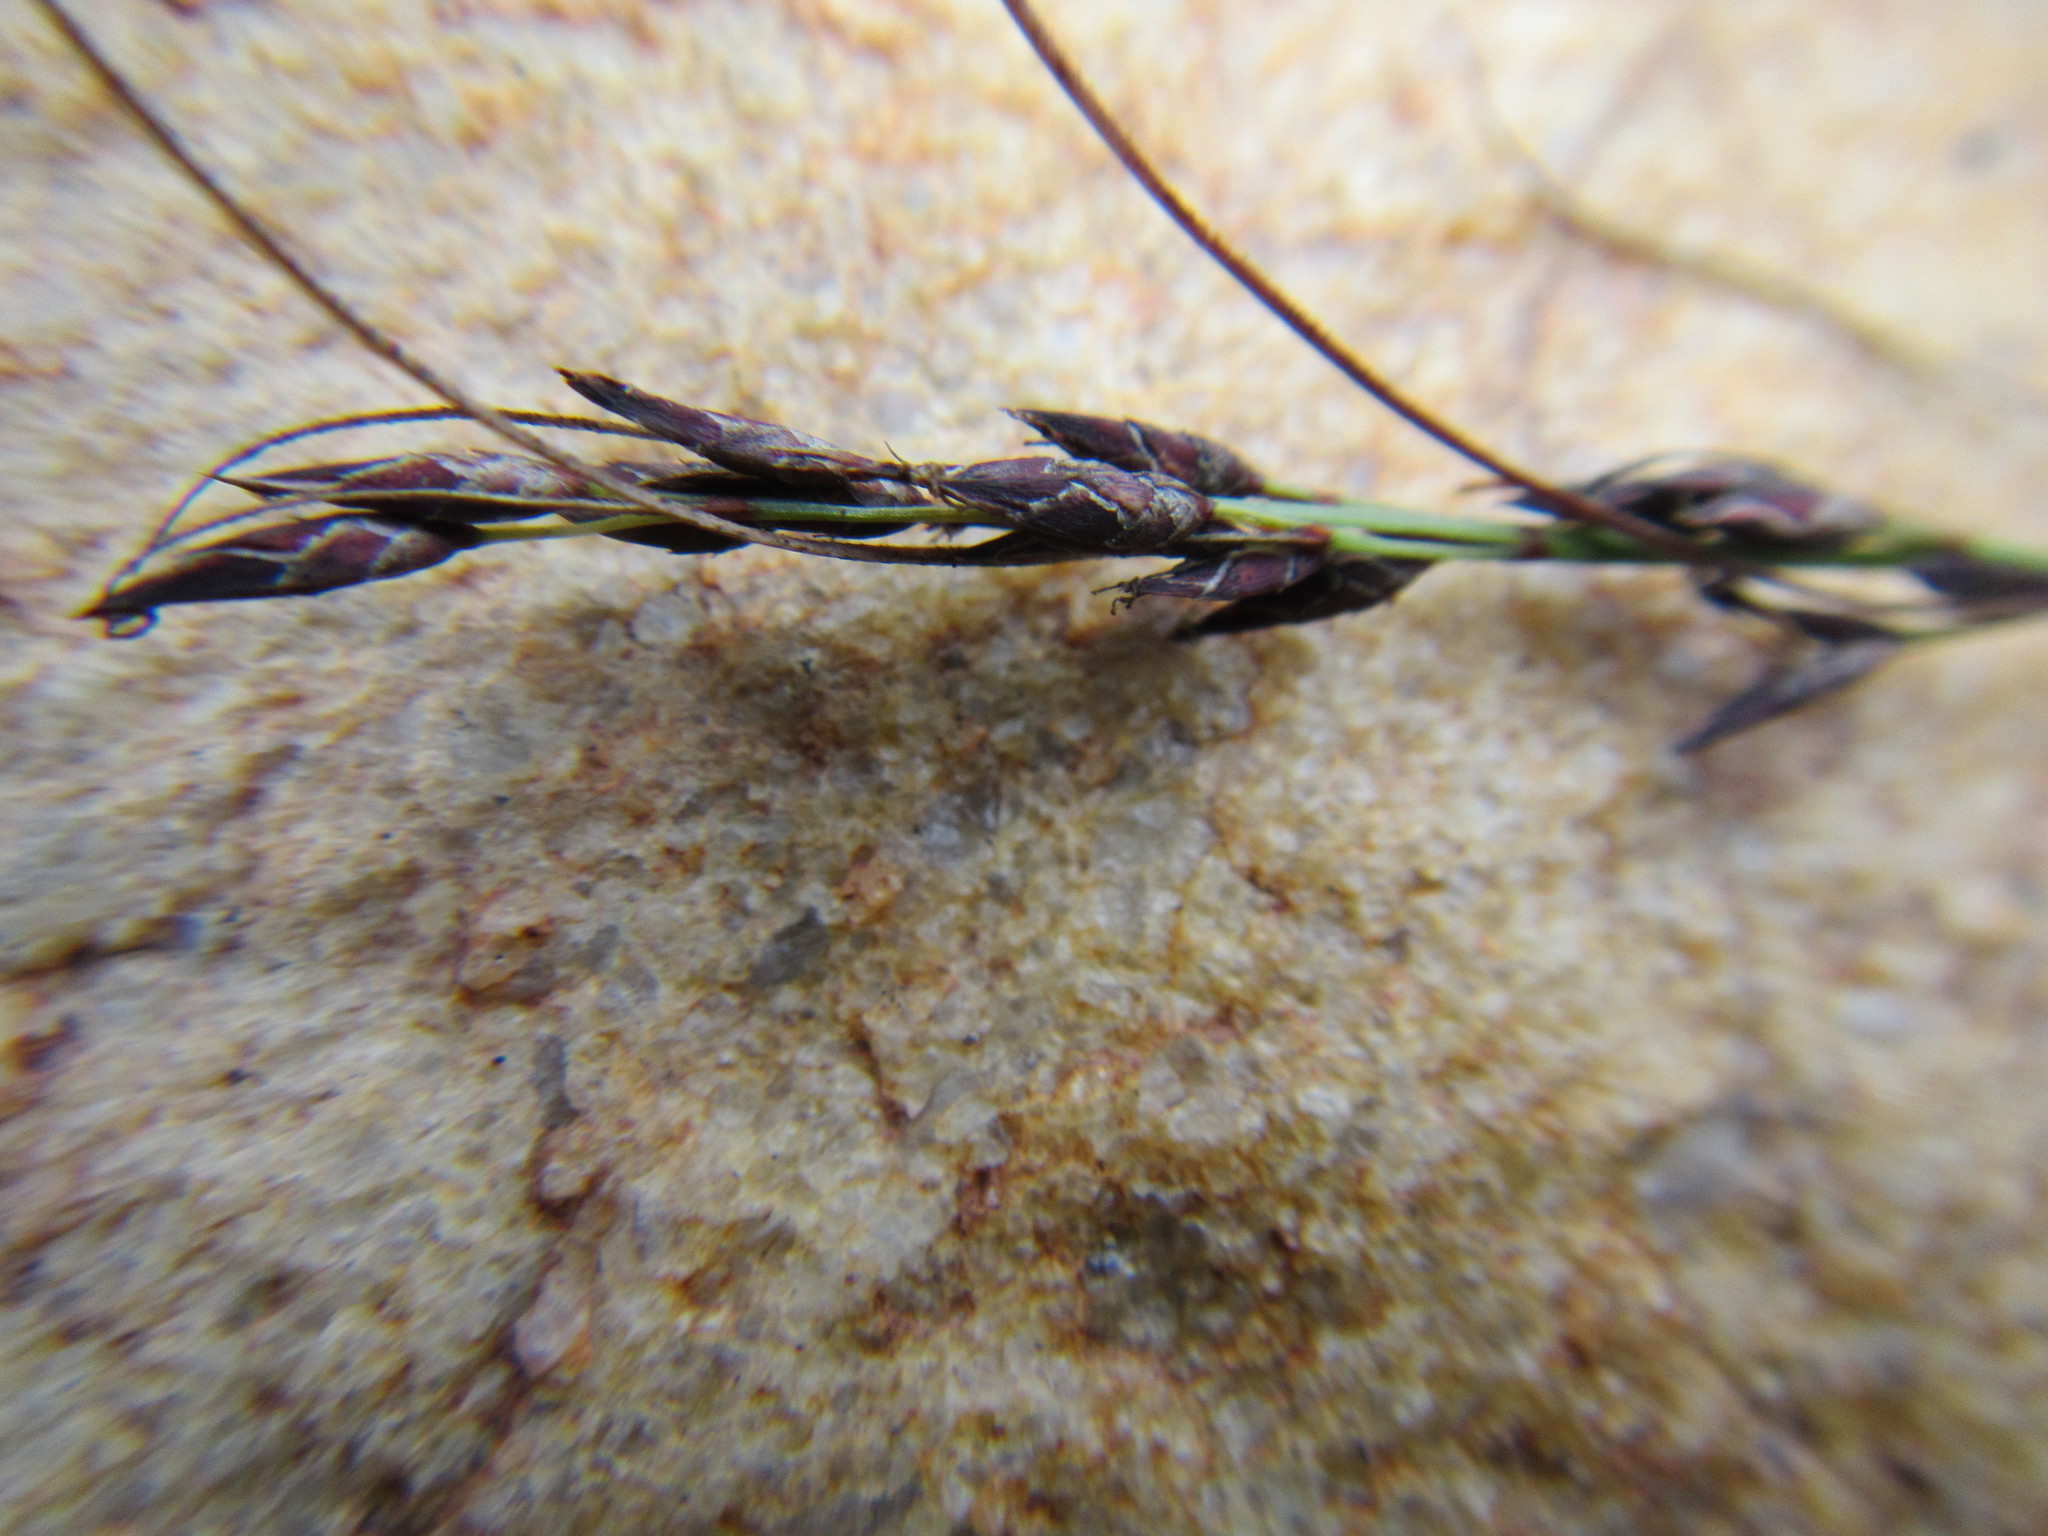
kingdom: Plantae
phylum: Tracheophyta
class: Liliopsida
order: Poales
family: Cyperaceae
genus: Schoenus
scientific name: Schoenus submarginalis
